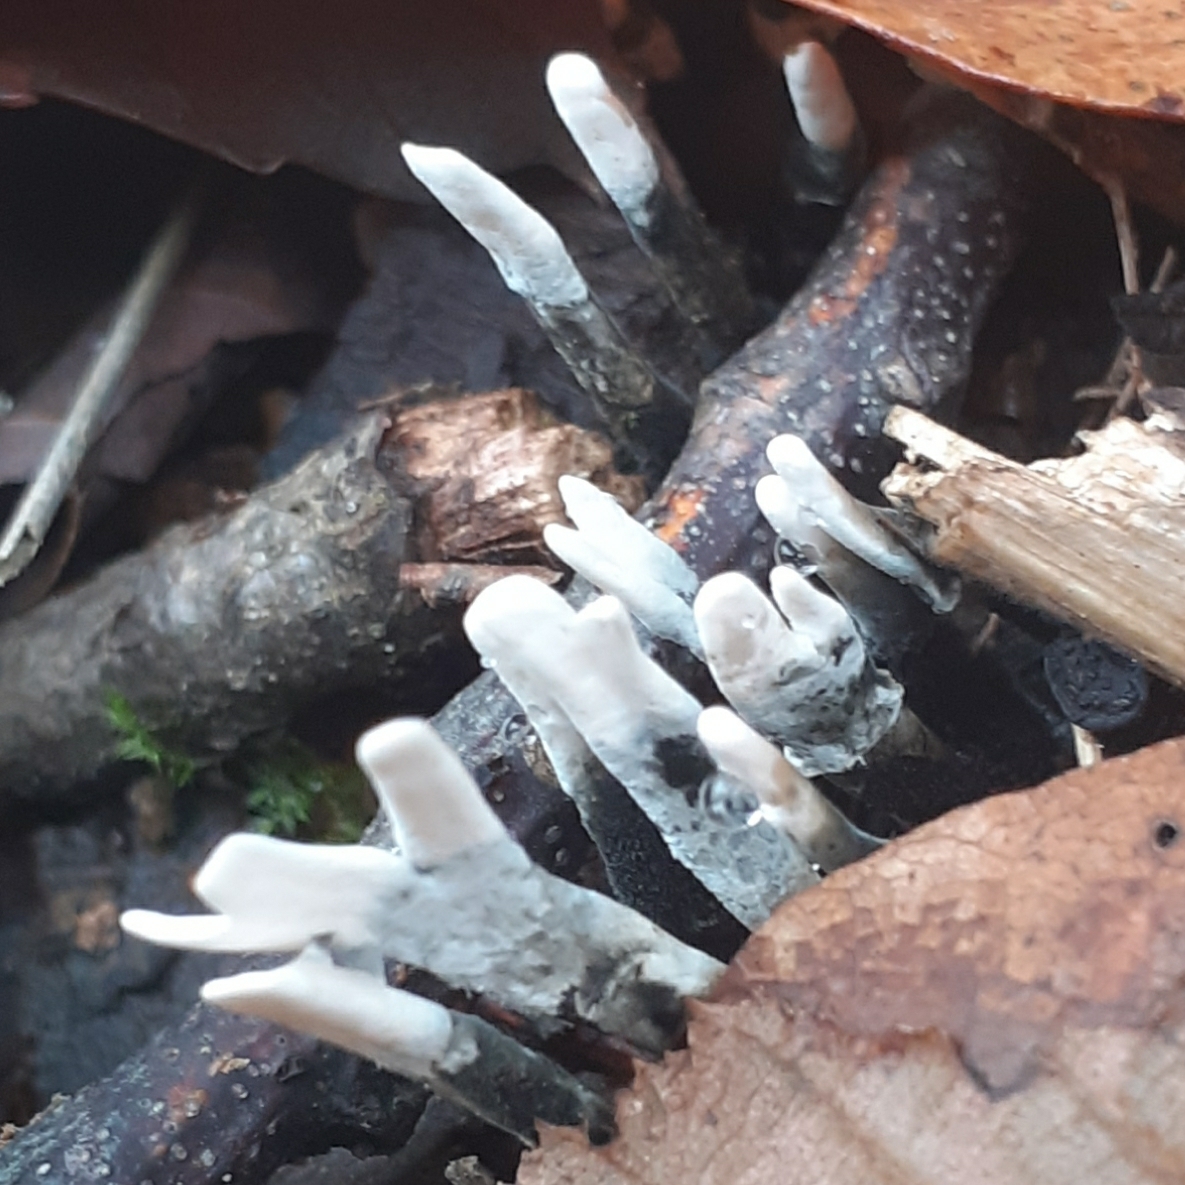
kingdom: Fungi
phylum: Ascomycota
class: Sordariomycetes
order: Xylariales
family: Xylariaceae
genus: Xylaria
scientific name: Xylaria hypoxylon
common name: Candle-snuff fungus
